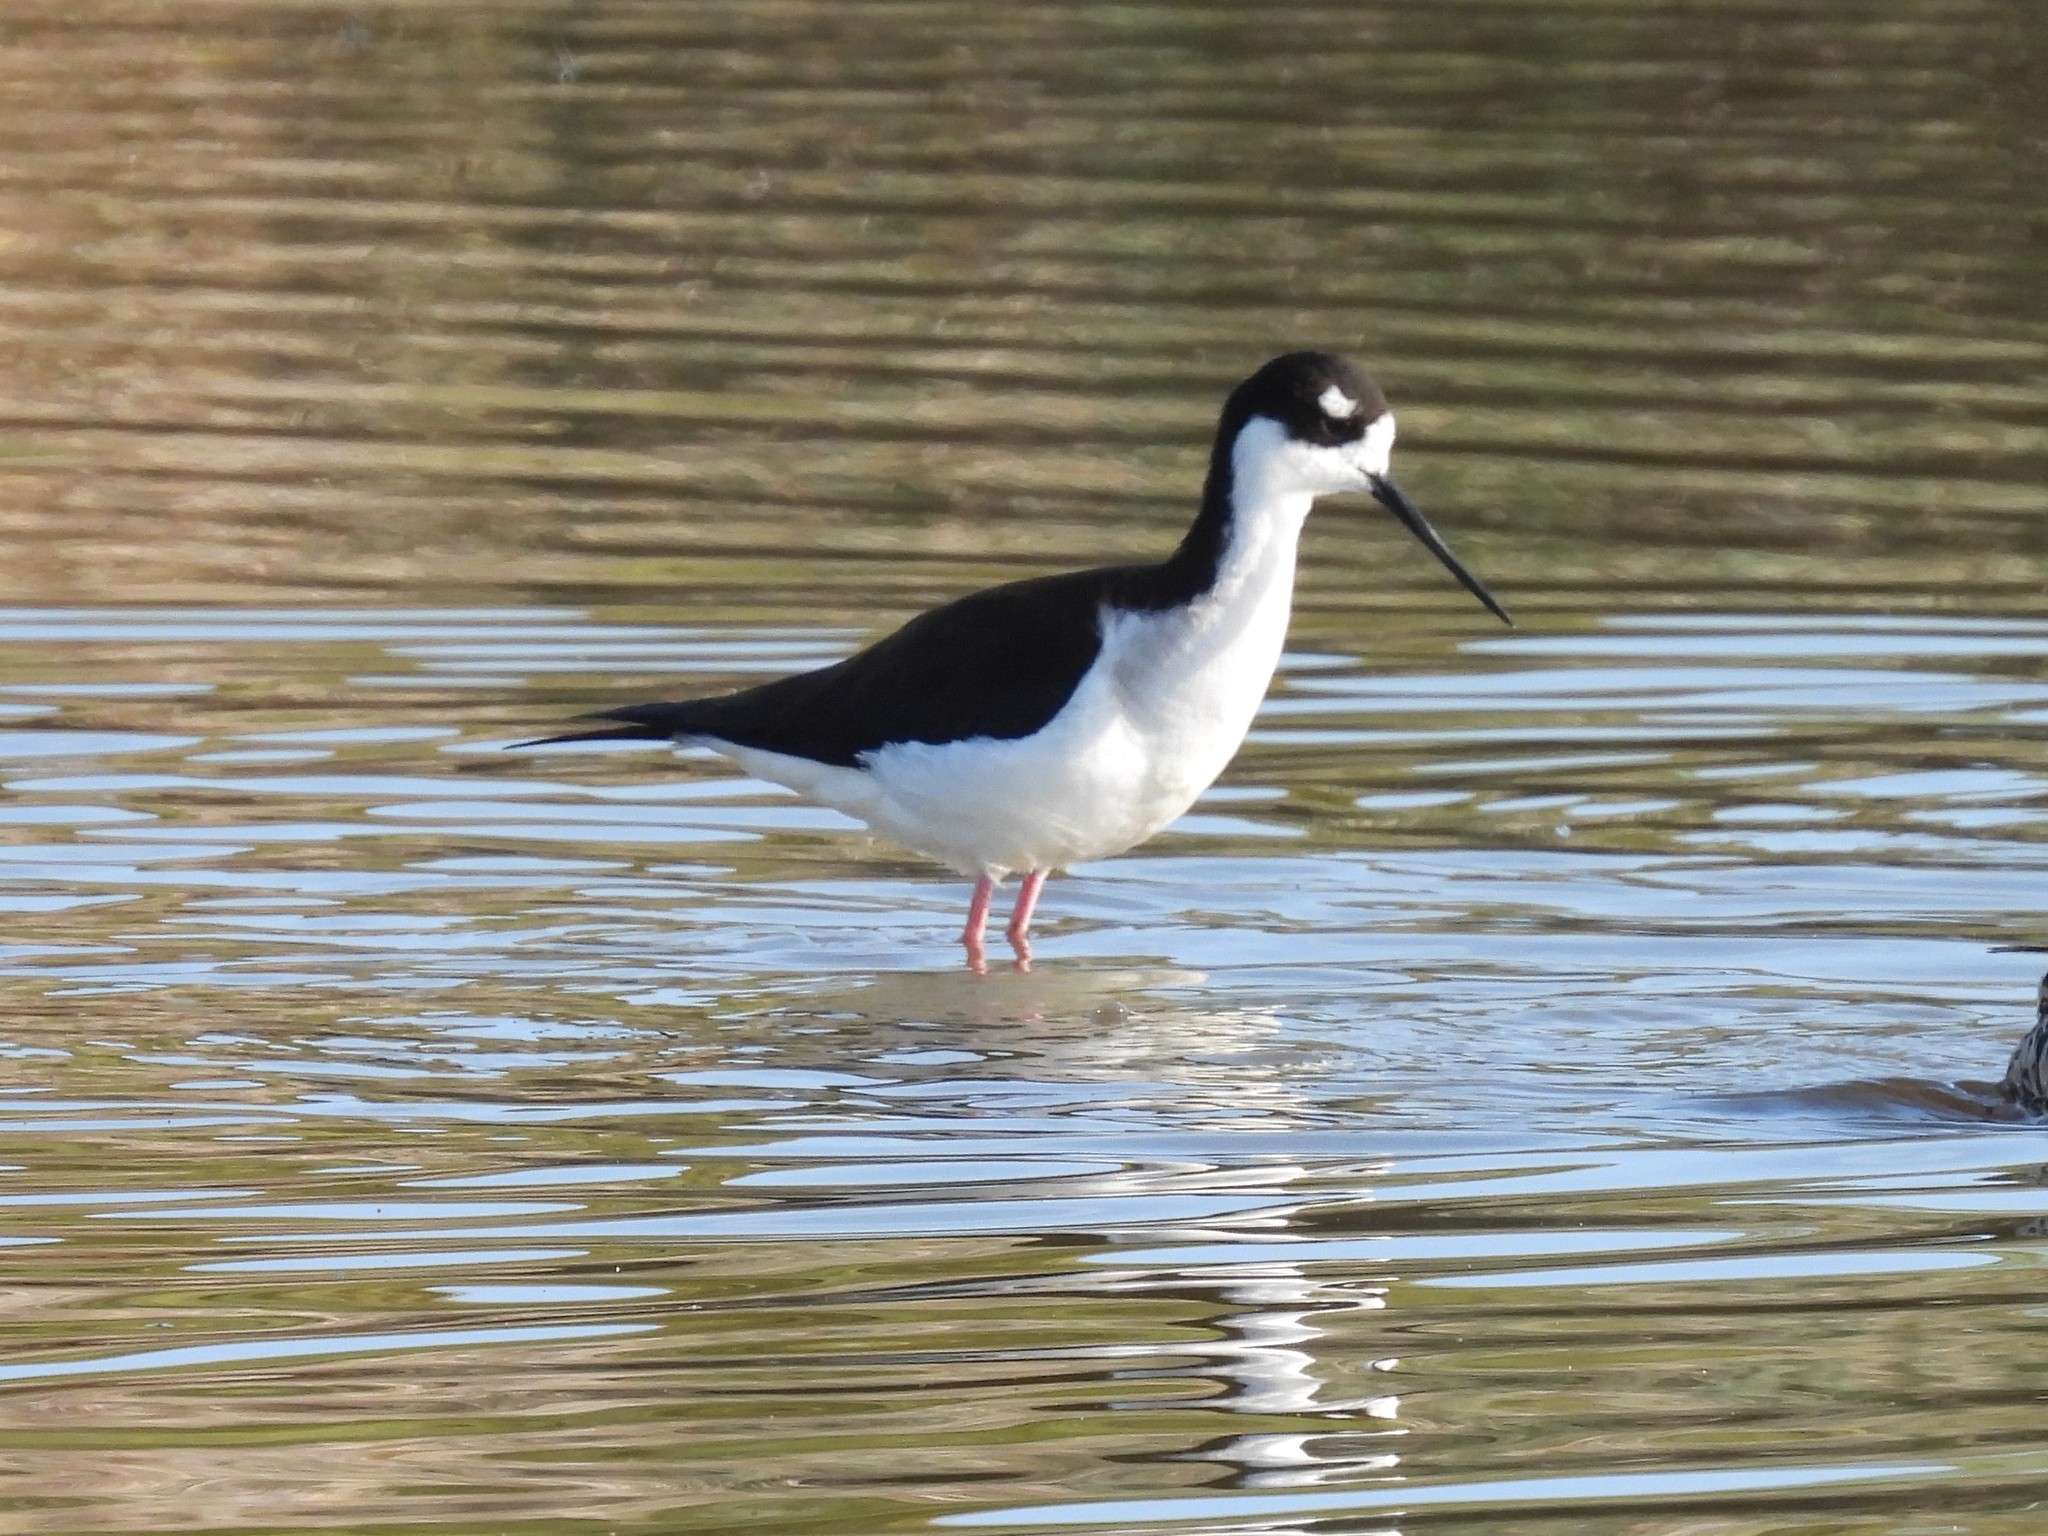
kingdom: Animalia
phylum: Chordata
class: Aves
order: Charadriiformes
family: Recurvirostridae
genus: Himantopus
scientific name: Himantopus mexicanus
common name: Black-necked stilt
